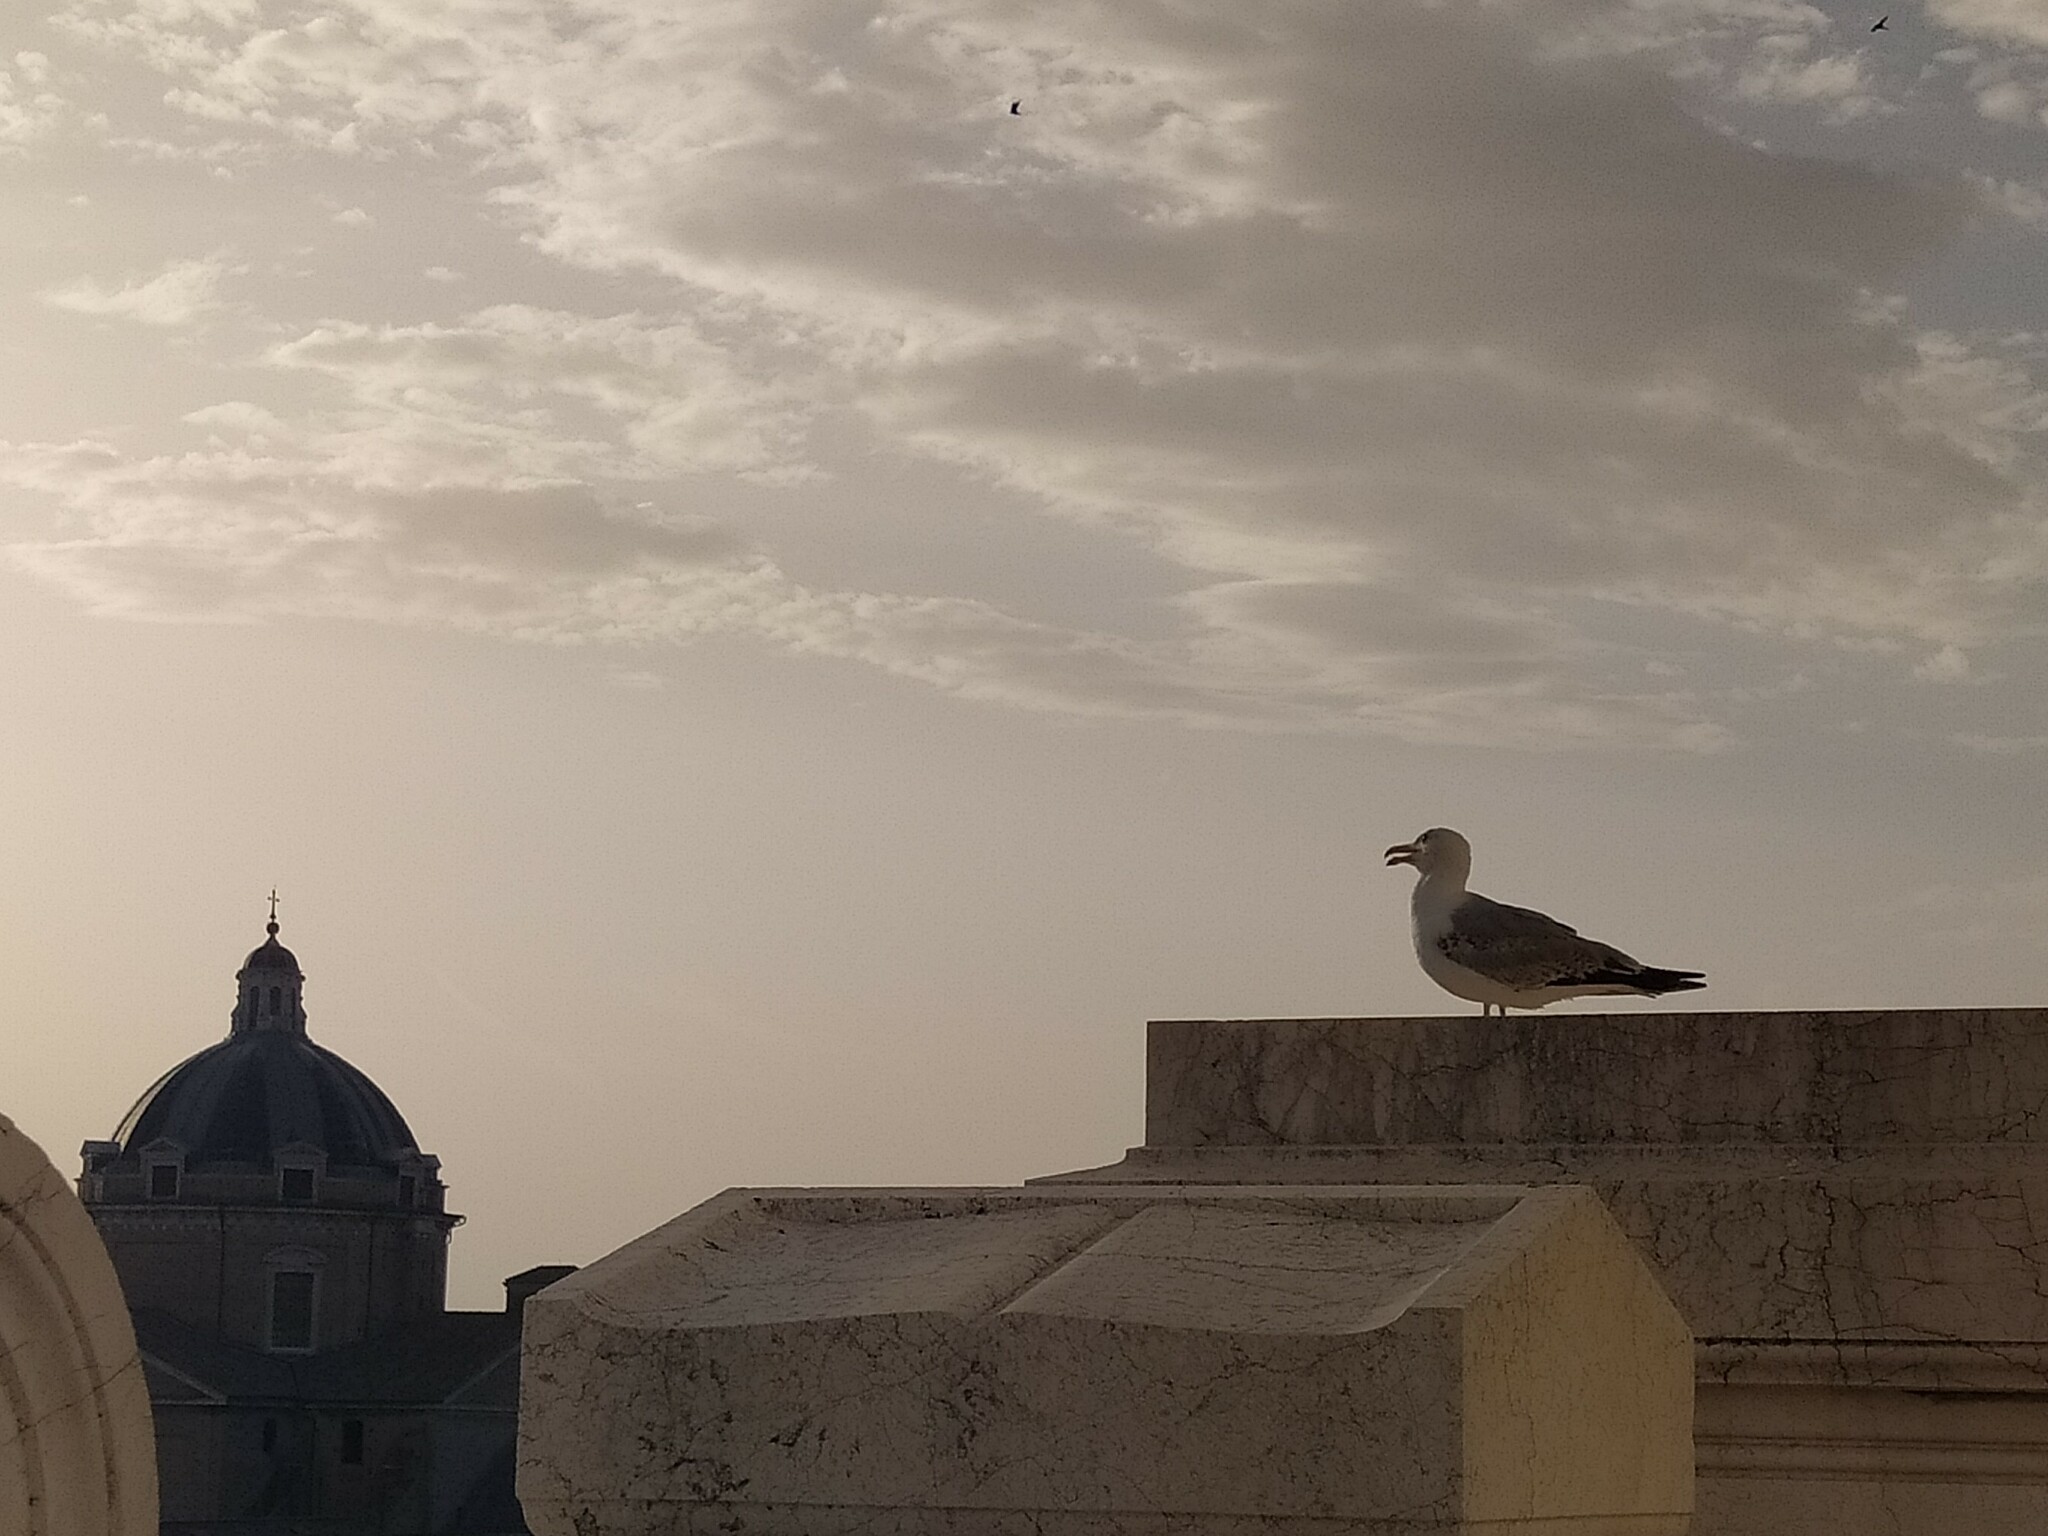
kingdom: Animalia
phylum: Chordata
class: Aves
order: Charadriiformes
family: Laridae
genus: Larus
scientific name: Larus michahellis
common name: Yellow-legged gull
